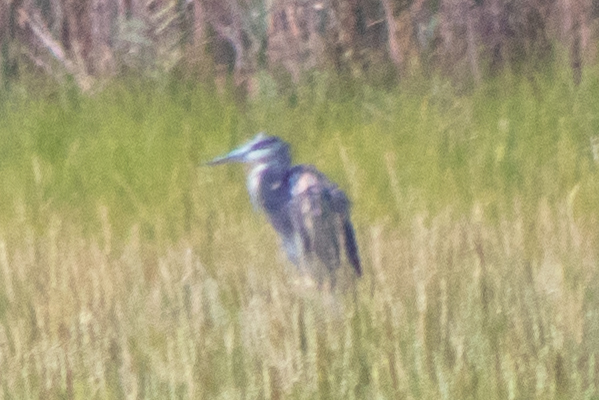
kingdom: Animalia
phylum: Chordata
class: Aves
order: Pelecaniformes
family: Ardeidae
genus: Ardea
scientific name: Ardea herodias
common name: Great blue heron
